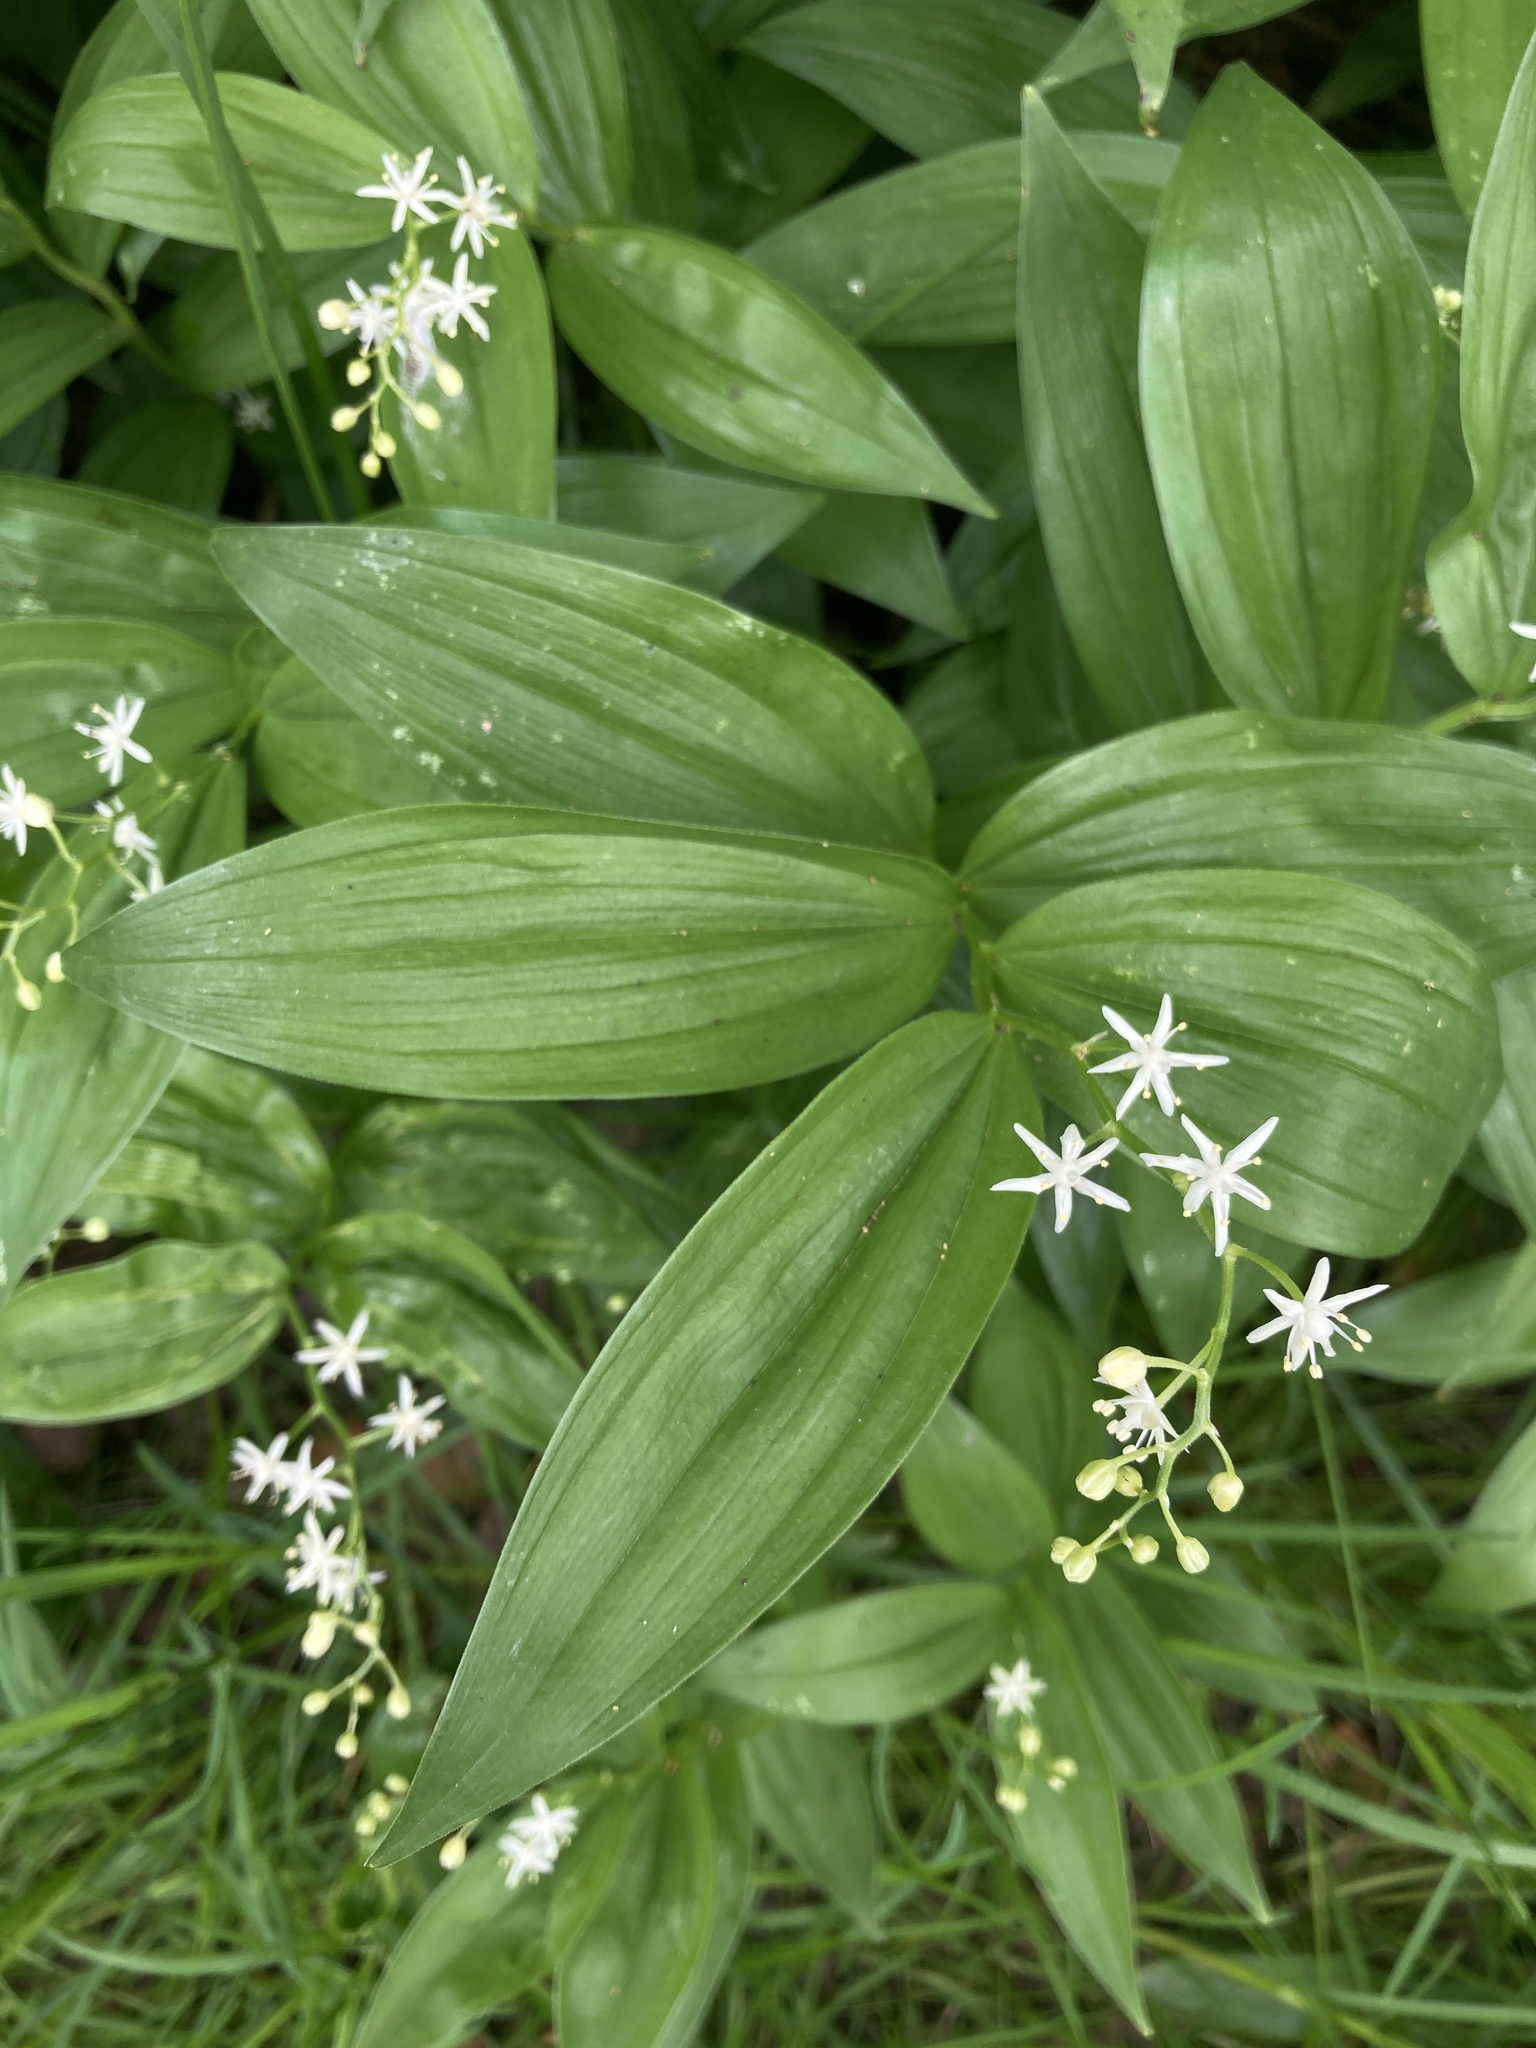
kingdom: Plantae
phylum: Tracheophyta
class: Liliopsida
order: Asparagales
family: Asparagaceae
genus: Maianthemum
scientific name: Maianthemum stellatum
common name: Little false solomon's seal
